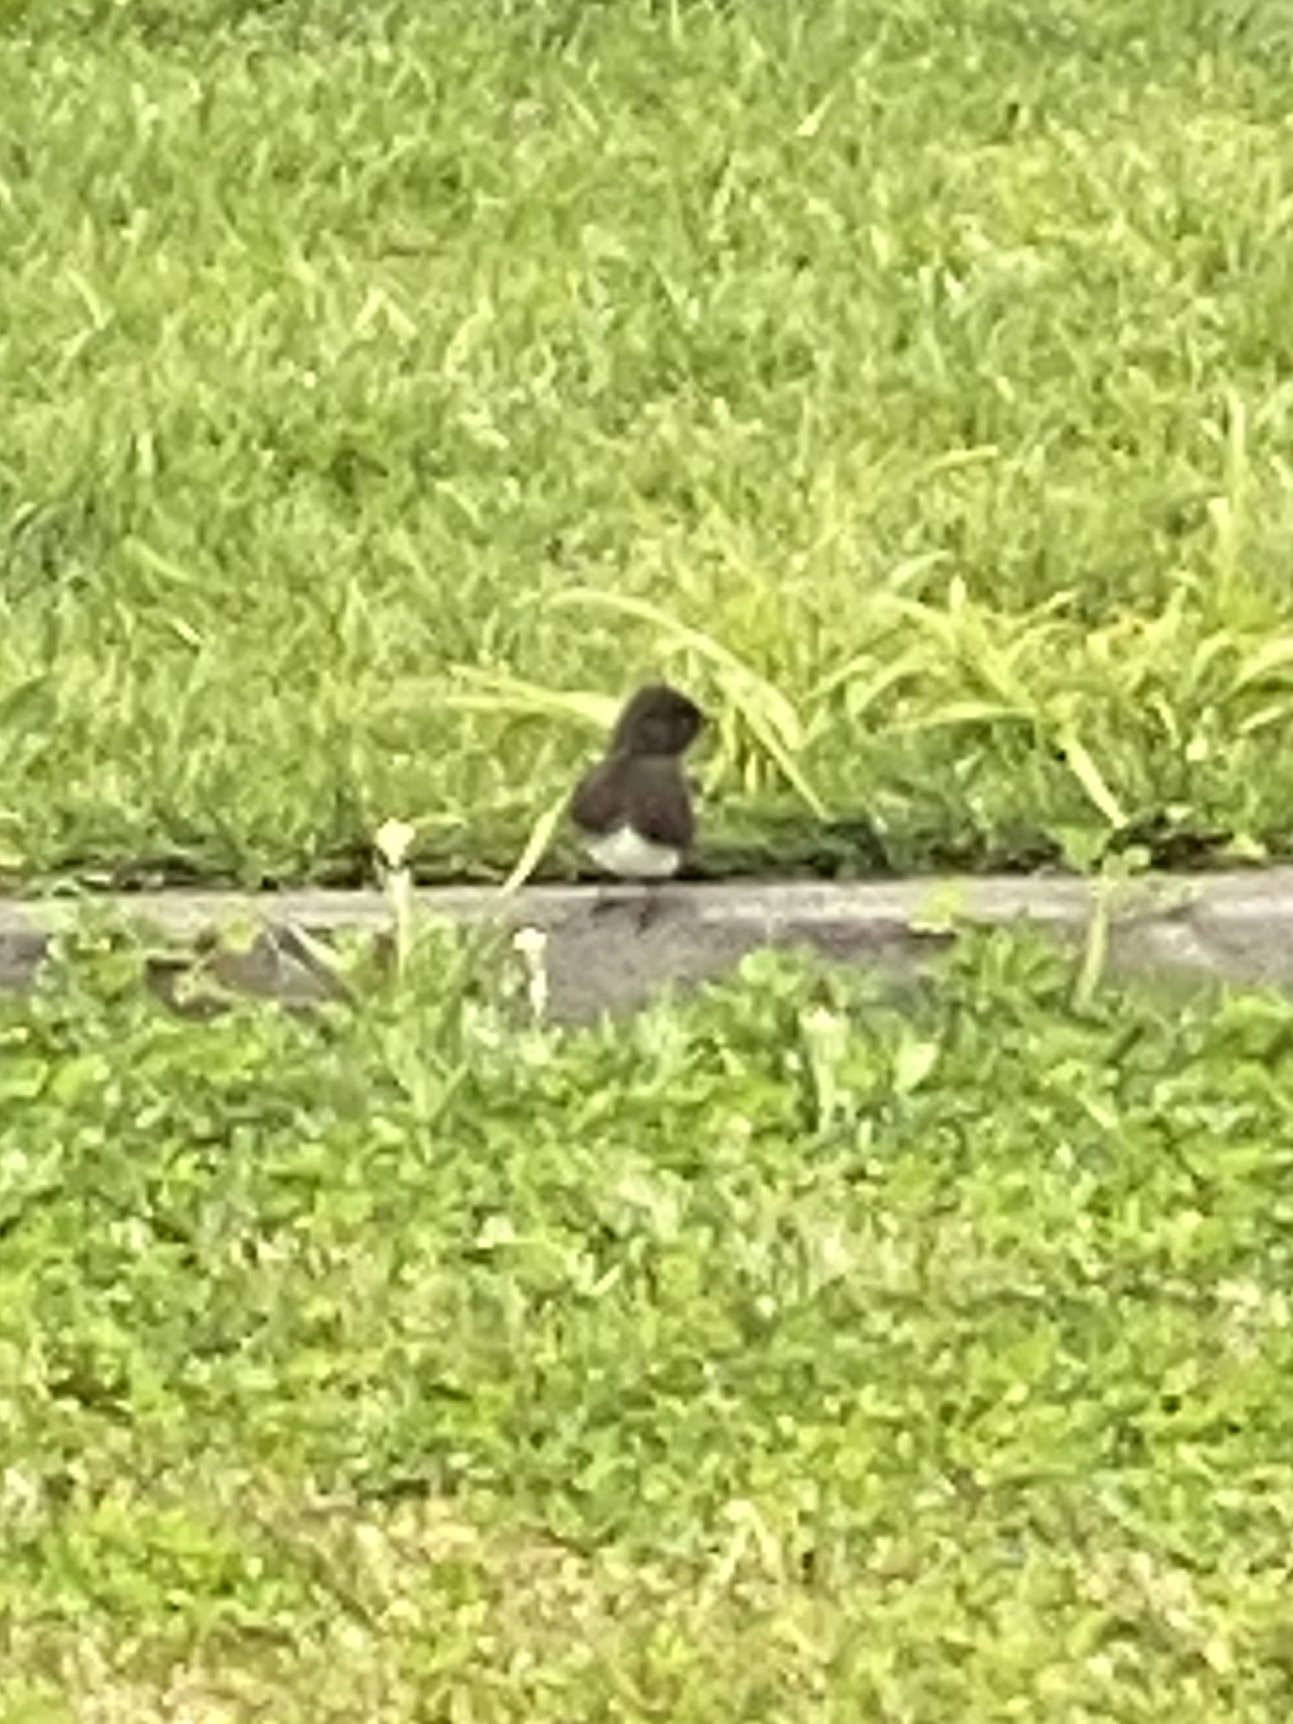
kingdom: Animalia
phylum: Chordata
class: Aves
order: Passeriformes
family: Tyrannidae
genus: Sayornis
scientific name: Sayornis nigricans
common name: Black phoebe
